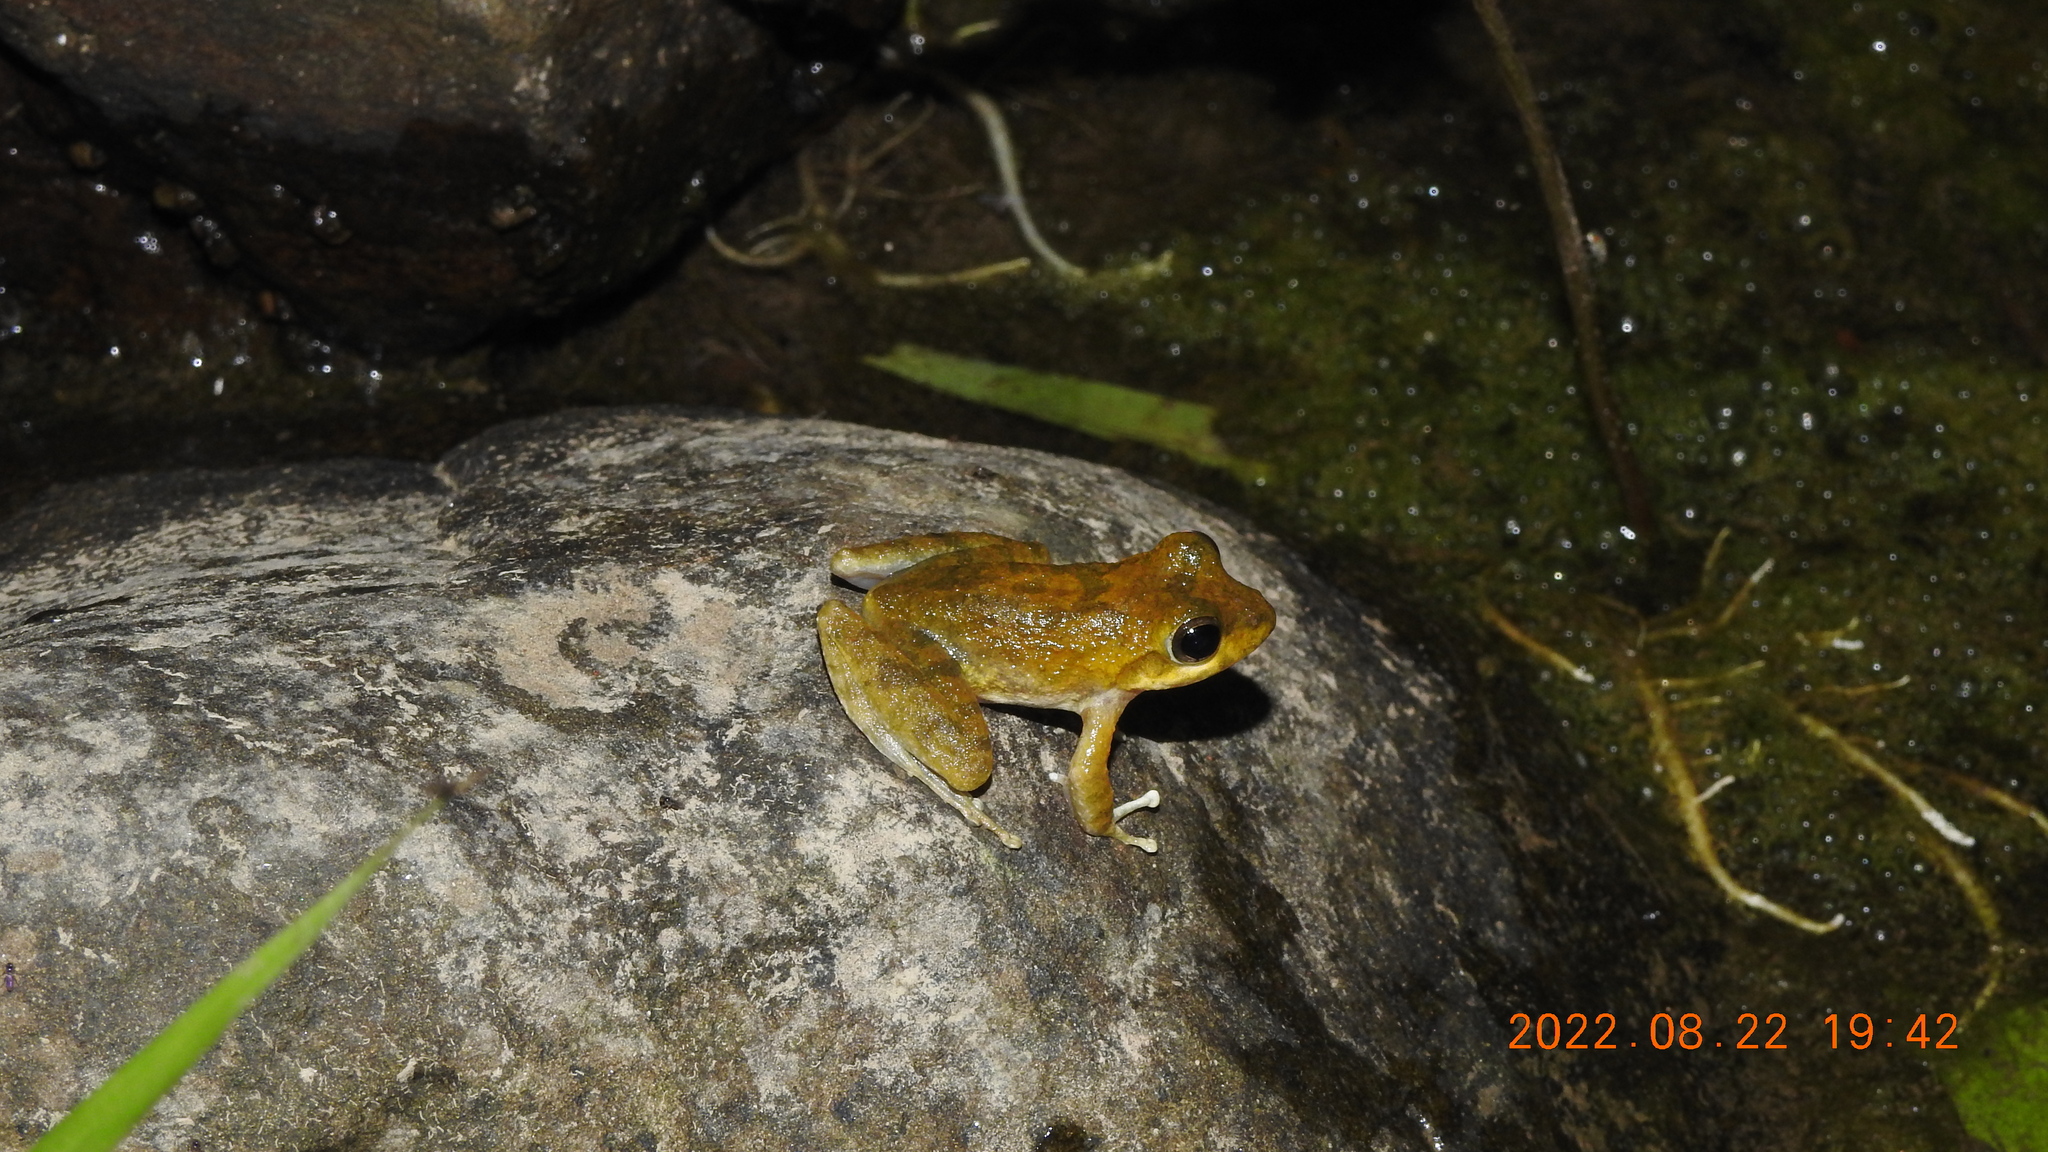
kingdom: Animalia
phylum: Chordata
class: Amphibia
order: Anura
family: Rhacophoridae
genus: Buergeria
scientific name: Buergeria otai
